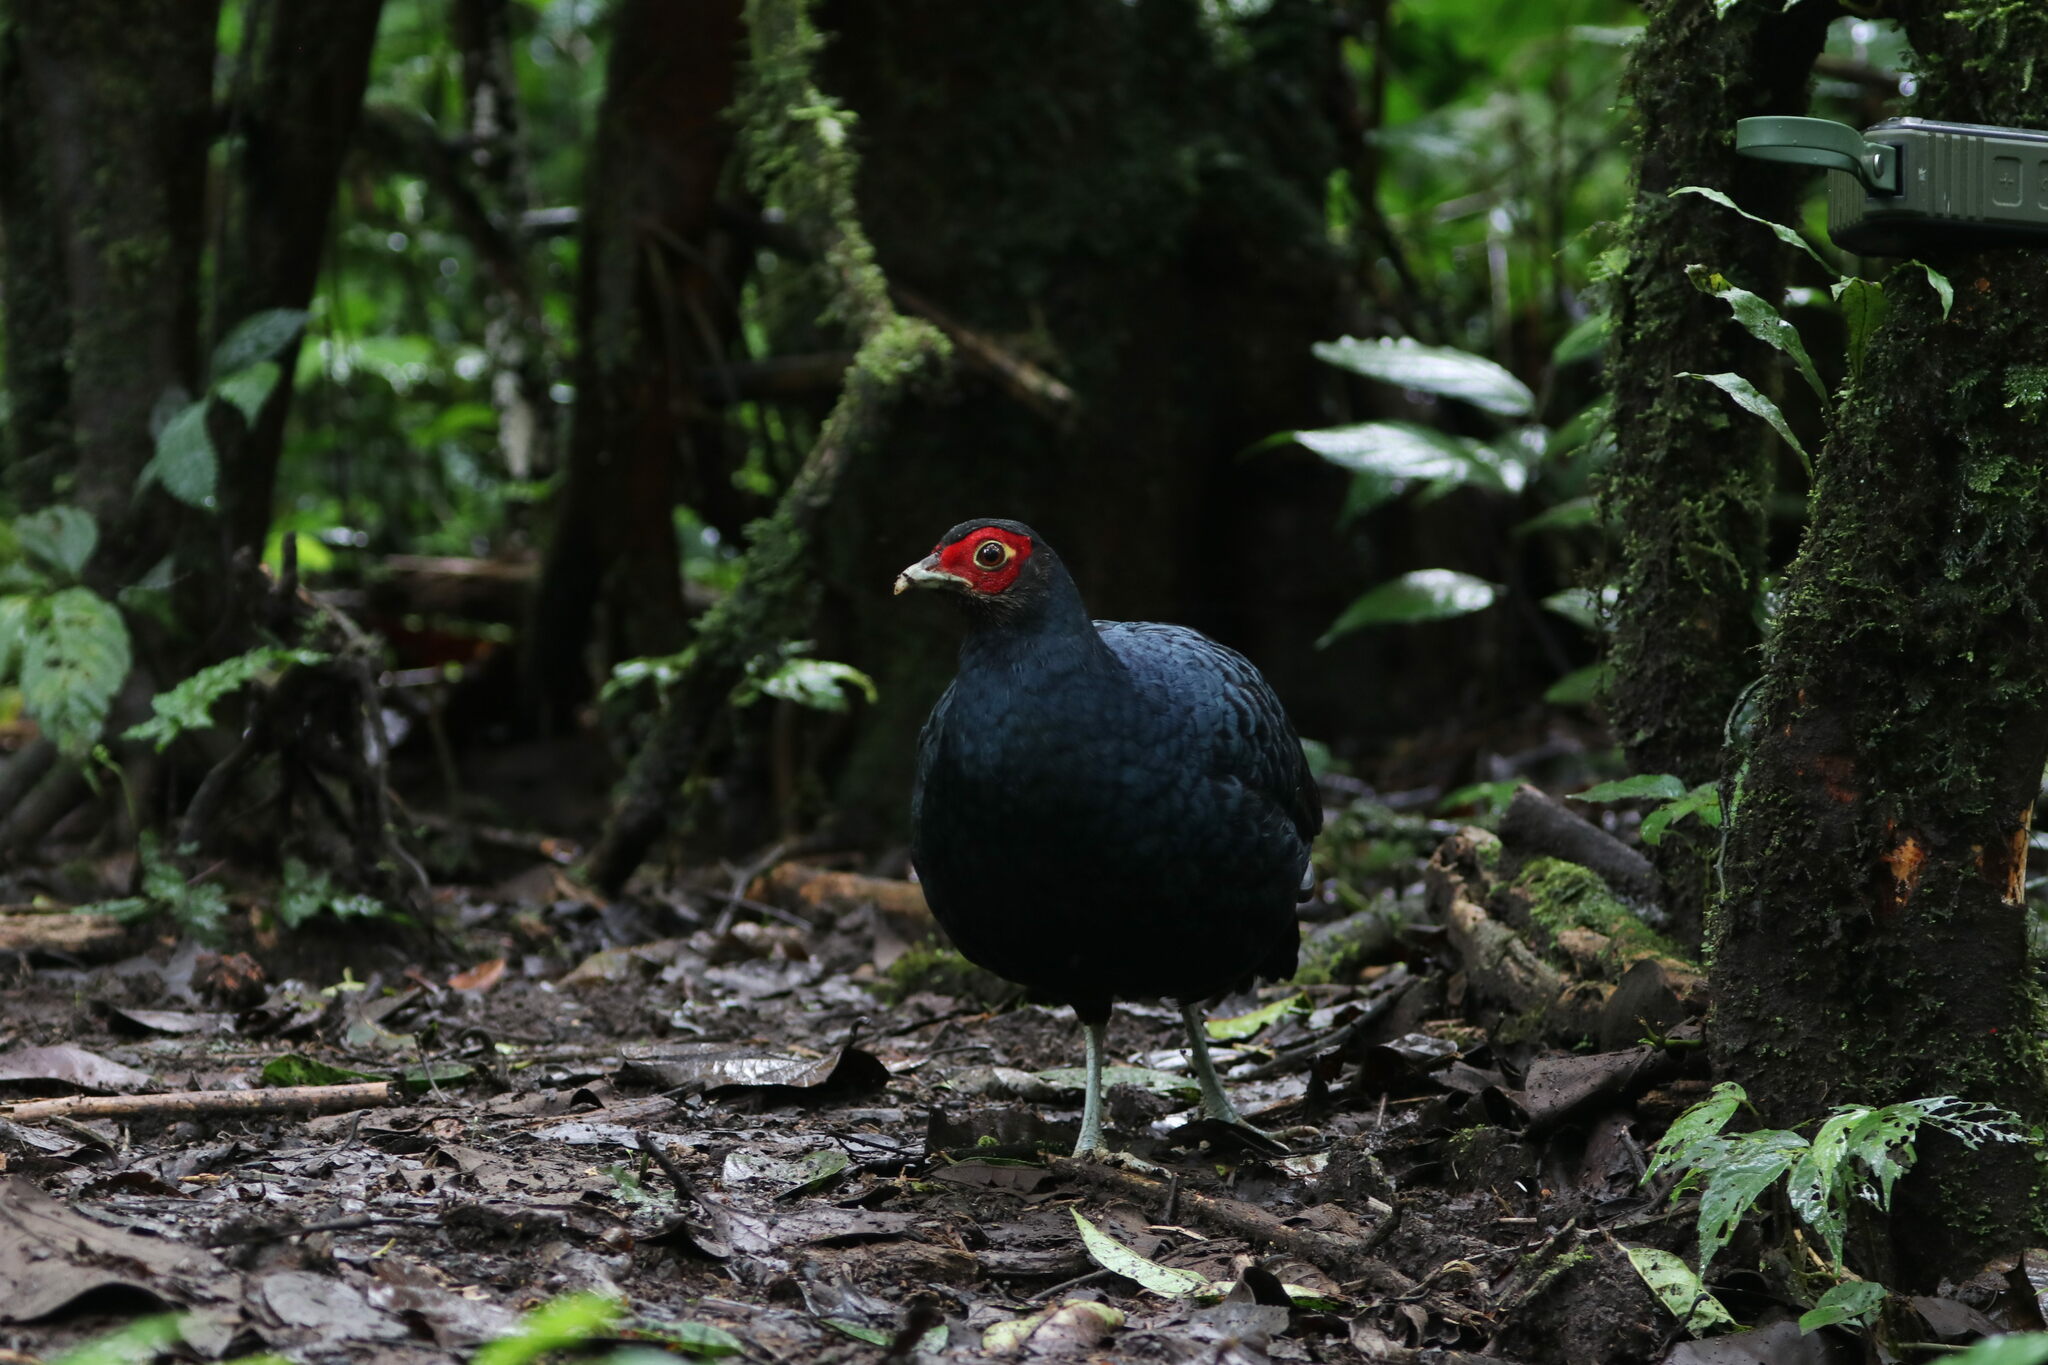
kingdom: Animalia
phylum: Chordata
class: Aves
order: Galliformes
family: Phasianidae
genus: Lophura
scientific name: Lophura inornata
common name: Salvadori's pheasant
